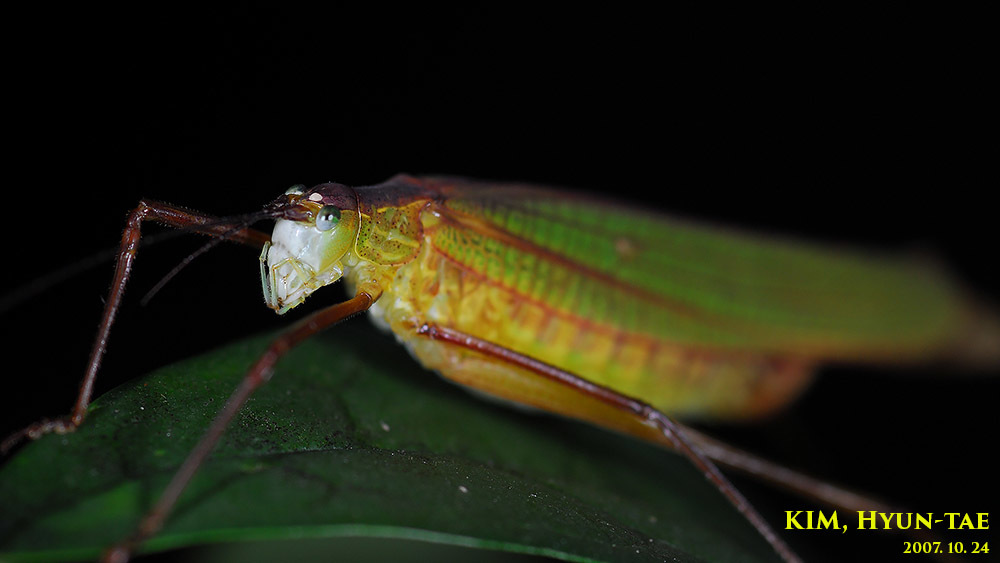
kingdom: Animalia
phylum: Arthropoda
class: Insecta
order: Orthoptera
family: Tettigoniidae
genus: Elimaea
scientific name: Elimaea fallax
